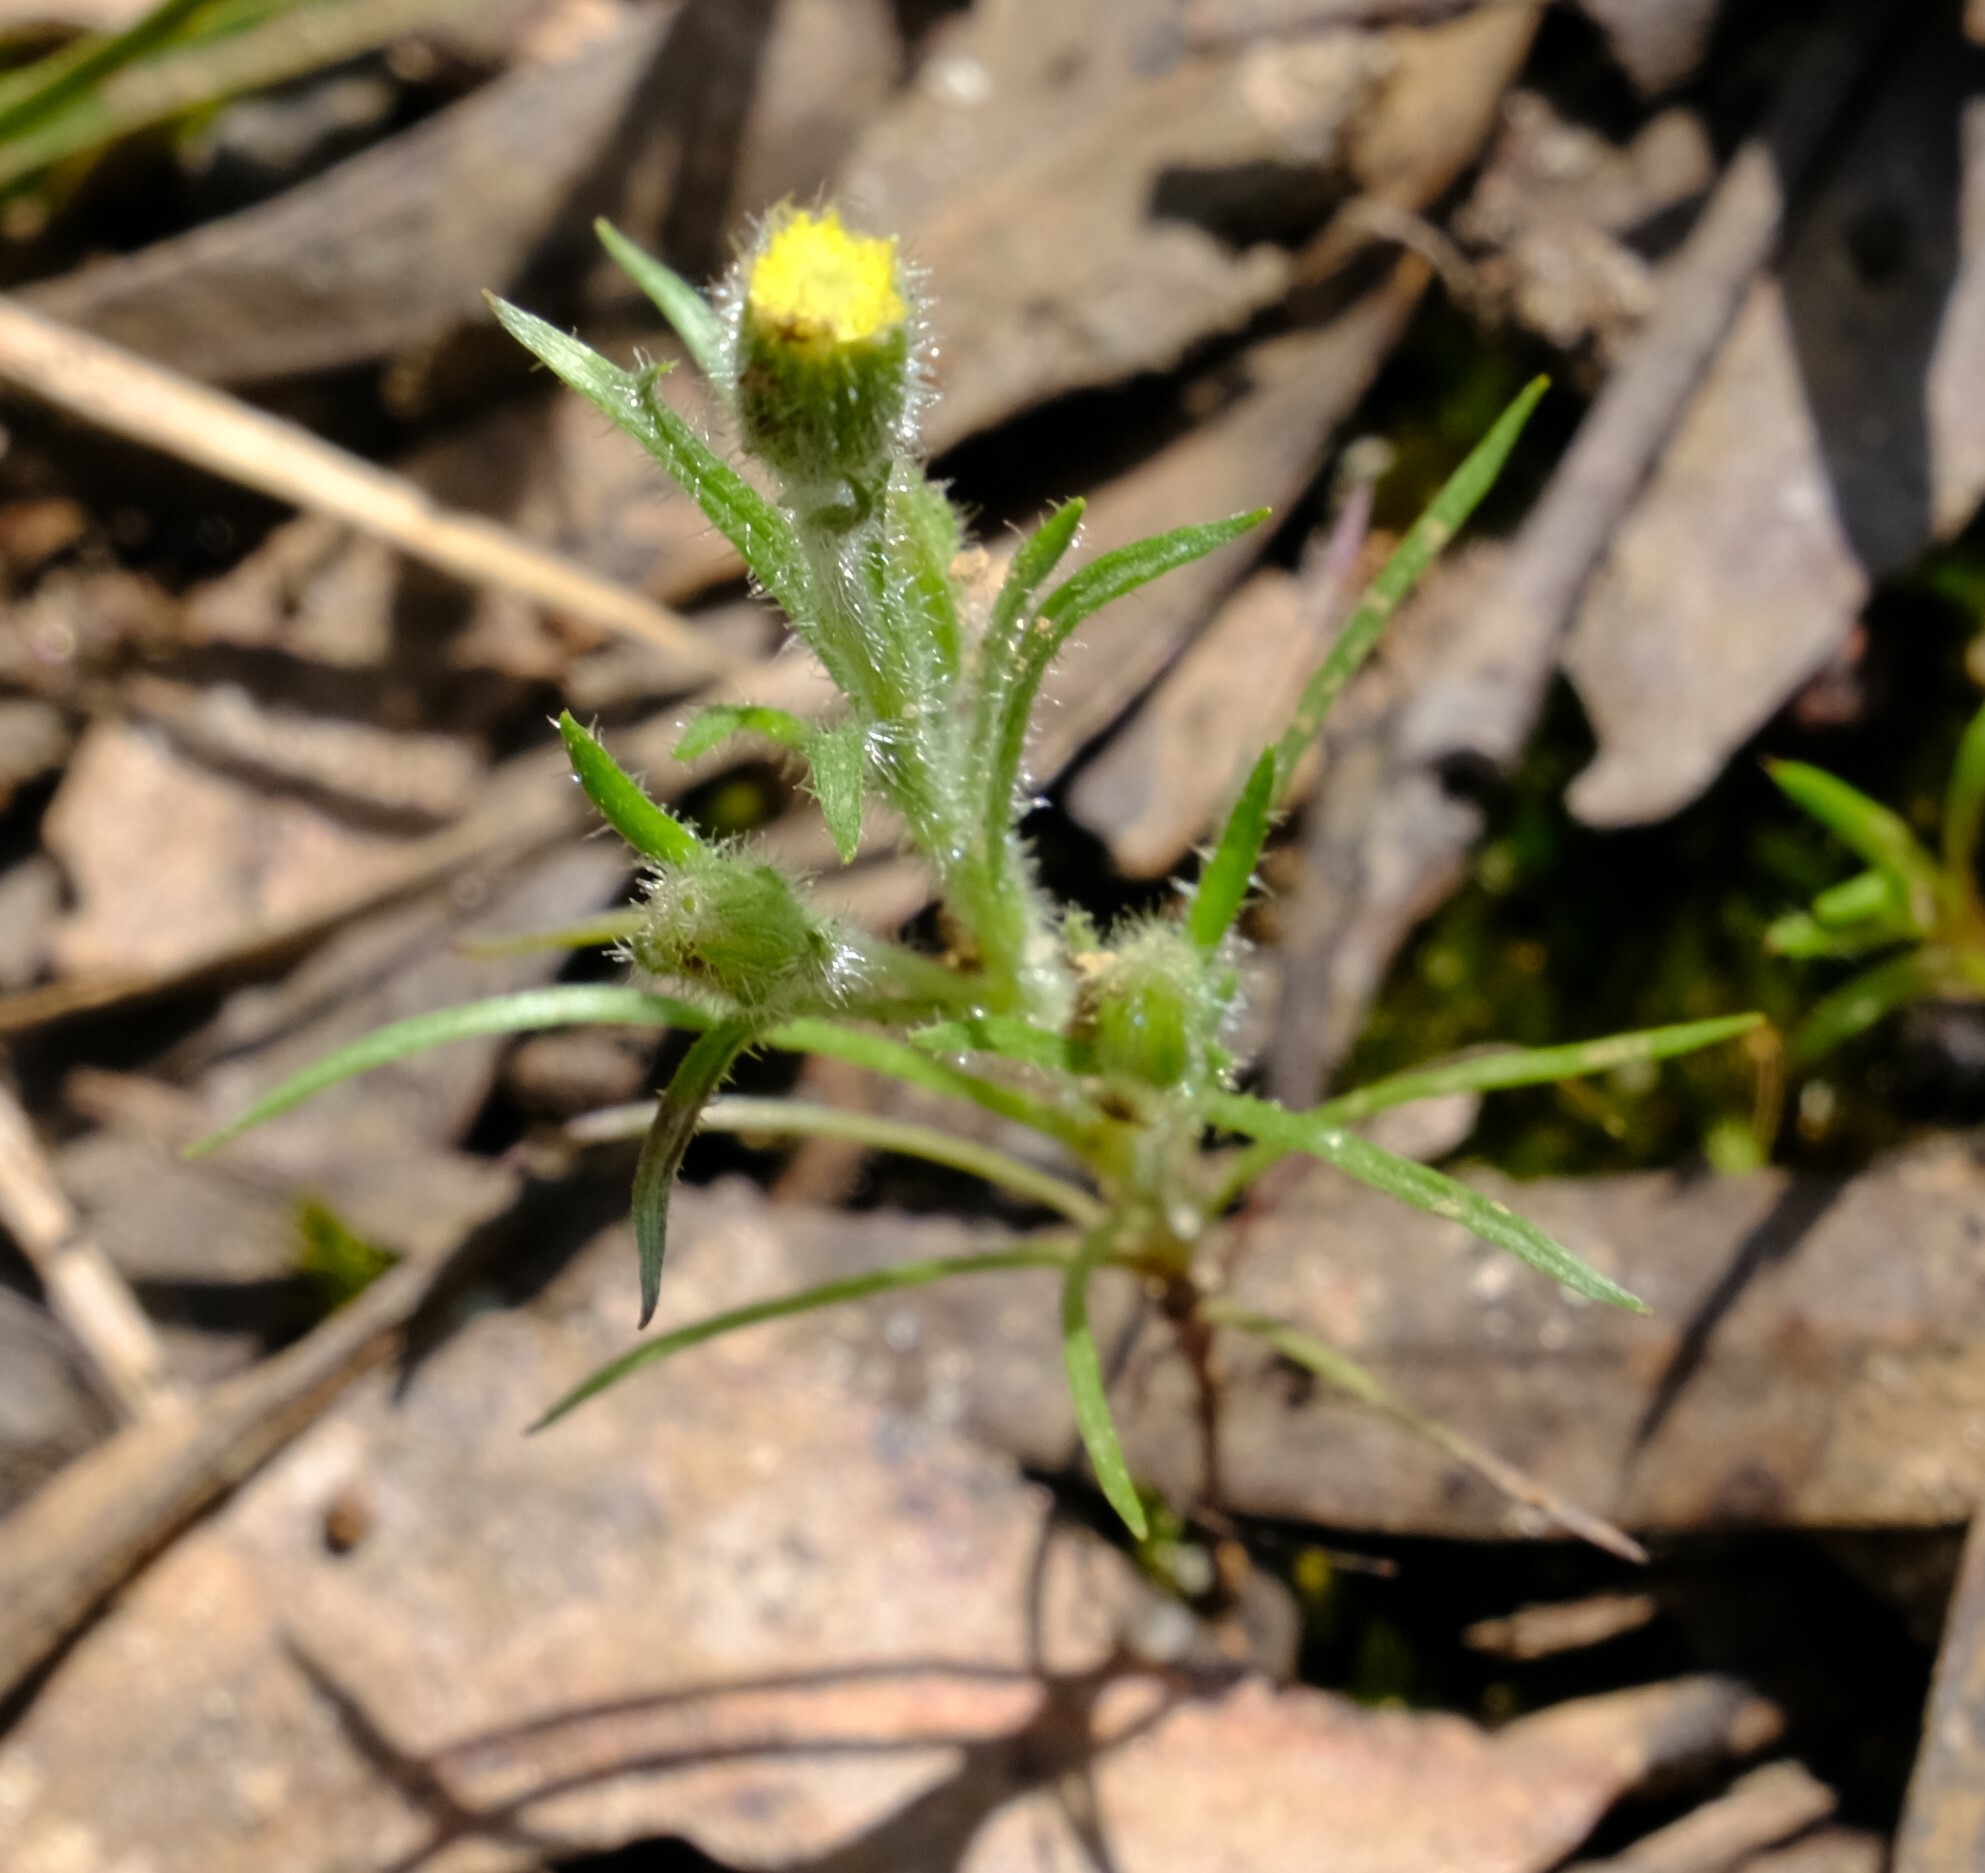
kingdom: Plantae
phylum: Tracheophyta
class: Magnoliopsida
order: Asterales
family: Asteraceae
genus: Millotia
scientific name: Millotia tenuifolia
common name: Soft millotia
